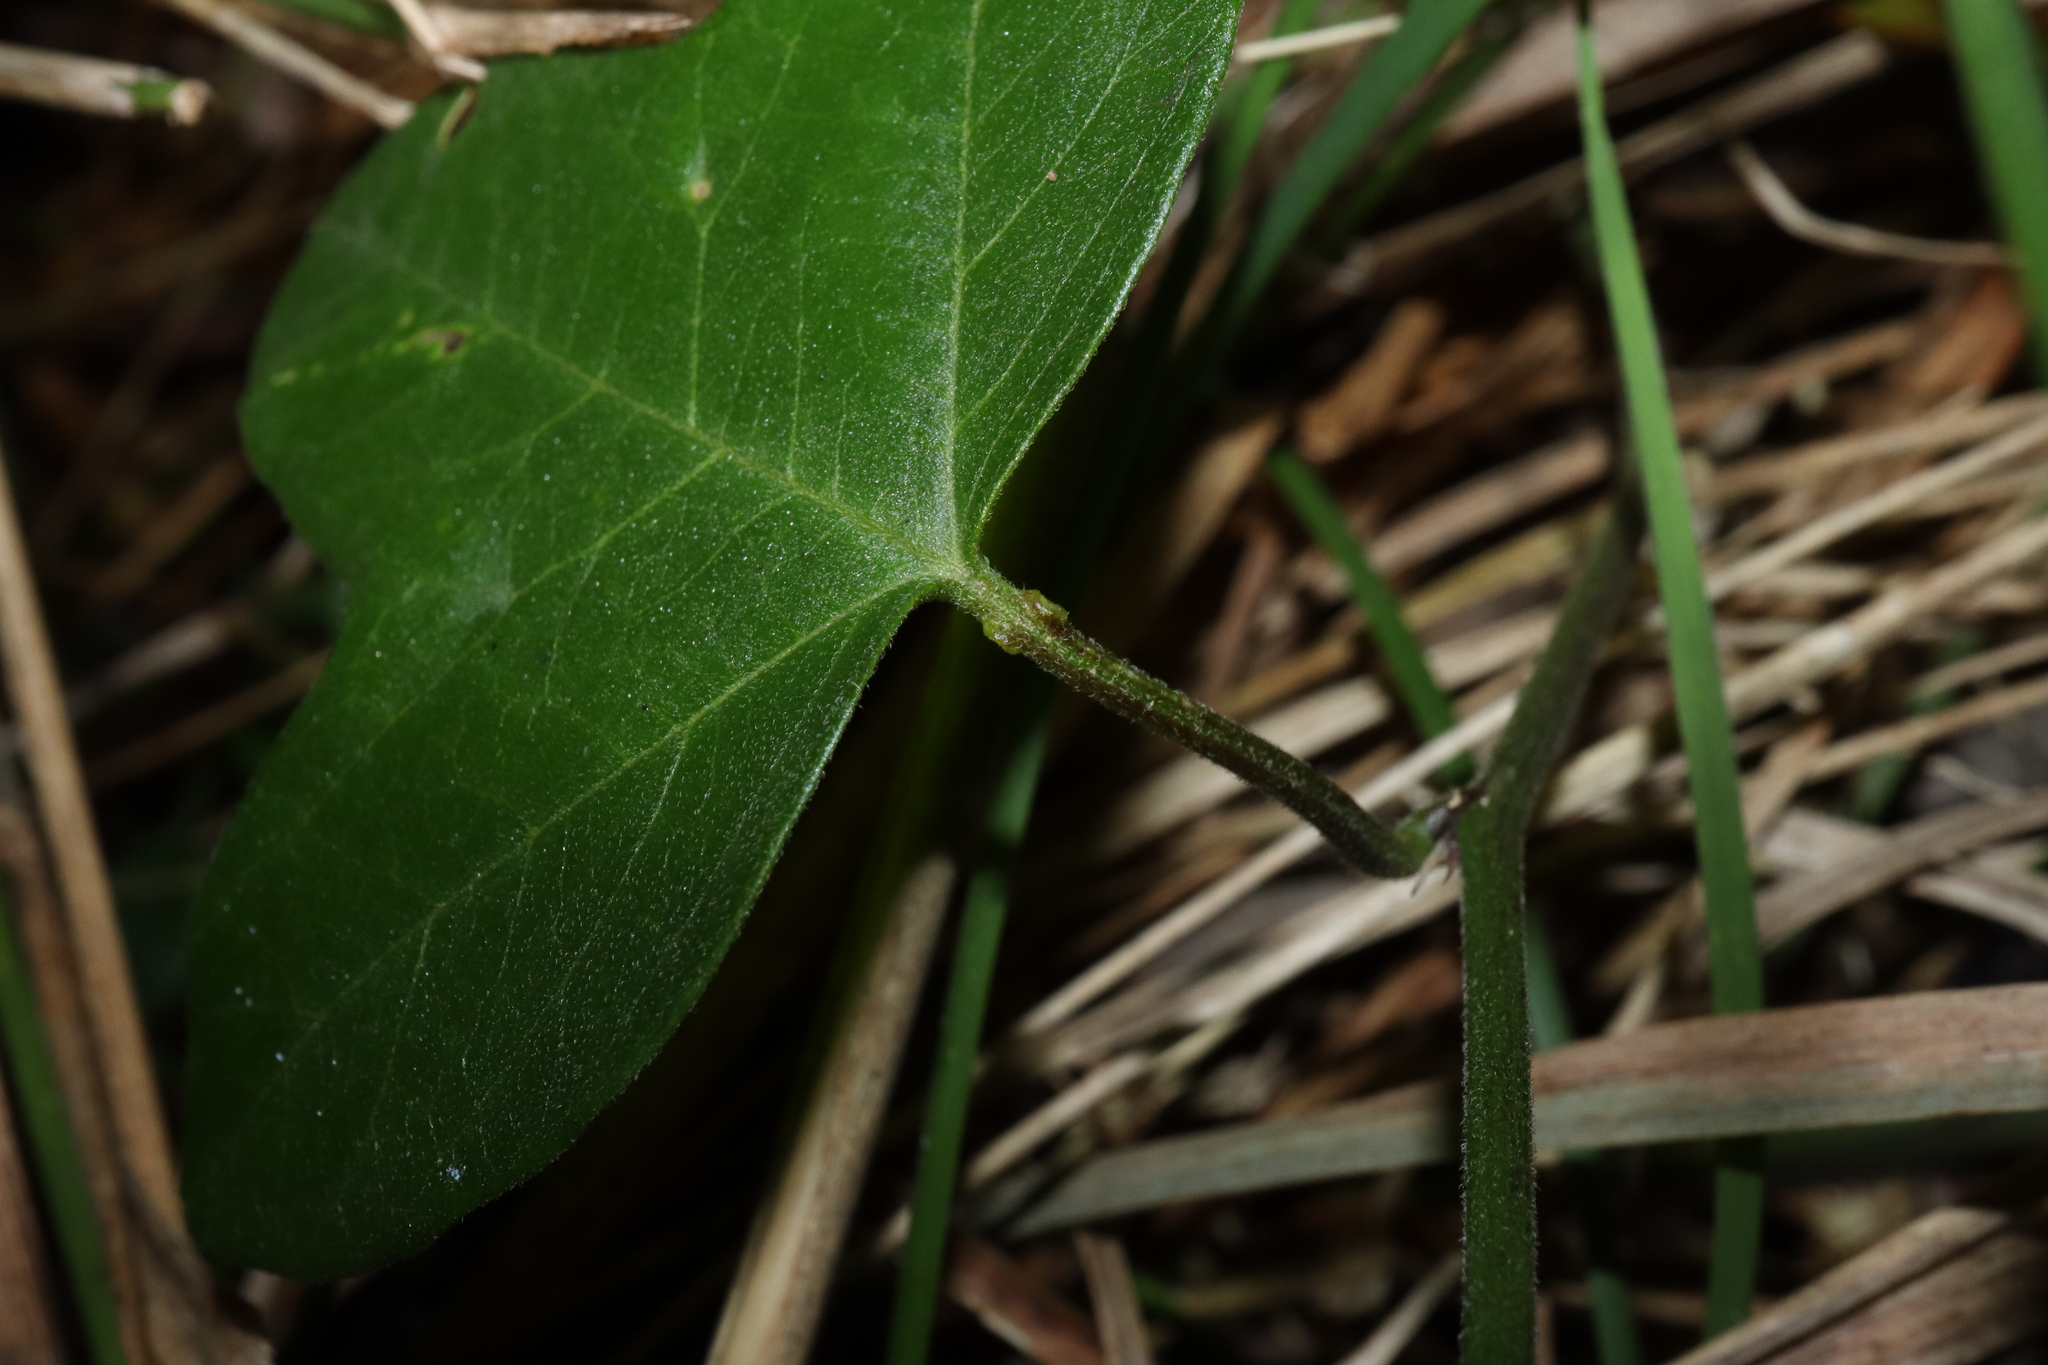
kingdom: Plantae
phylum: Tracheophyta
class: Magnoliopsida
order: Malpighiales
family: Passifloraceae
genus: Passiflora
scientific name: Passiflora herbertiana
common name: Yellow passionflower
